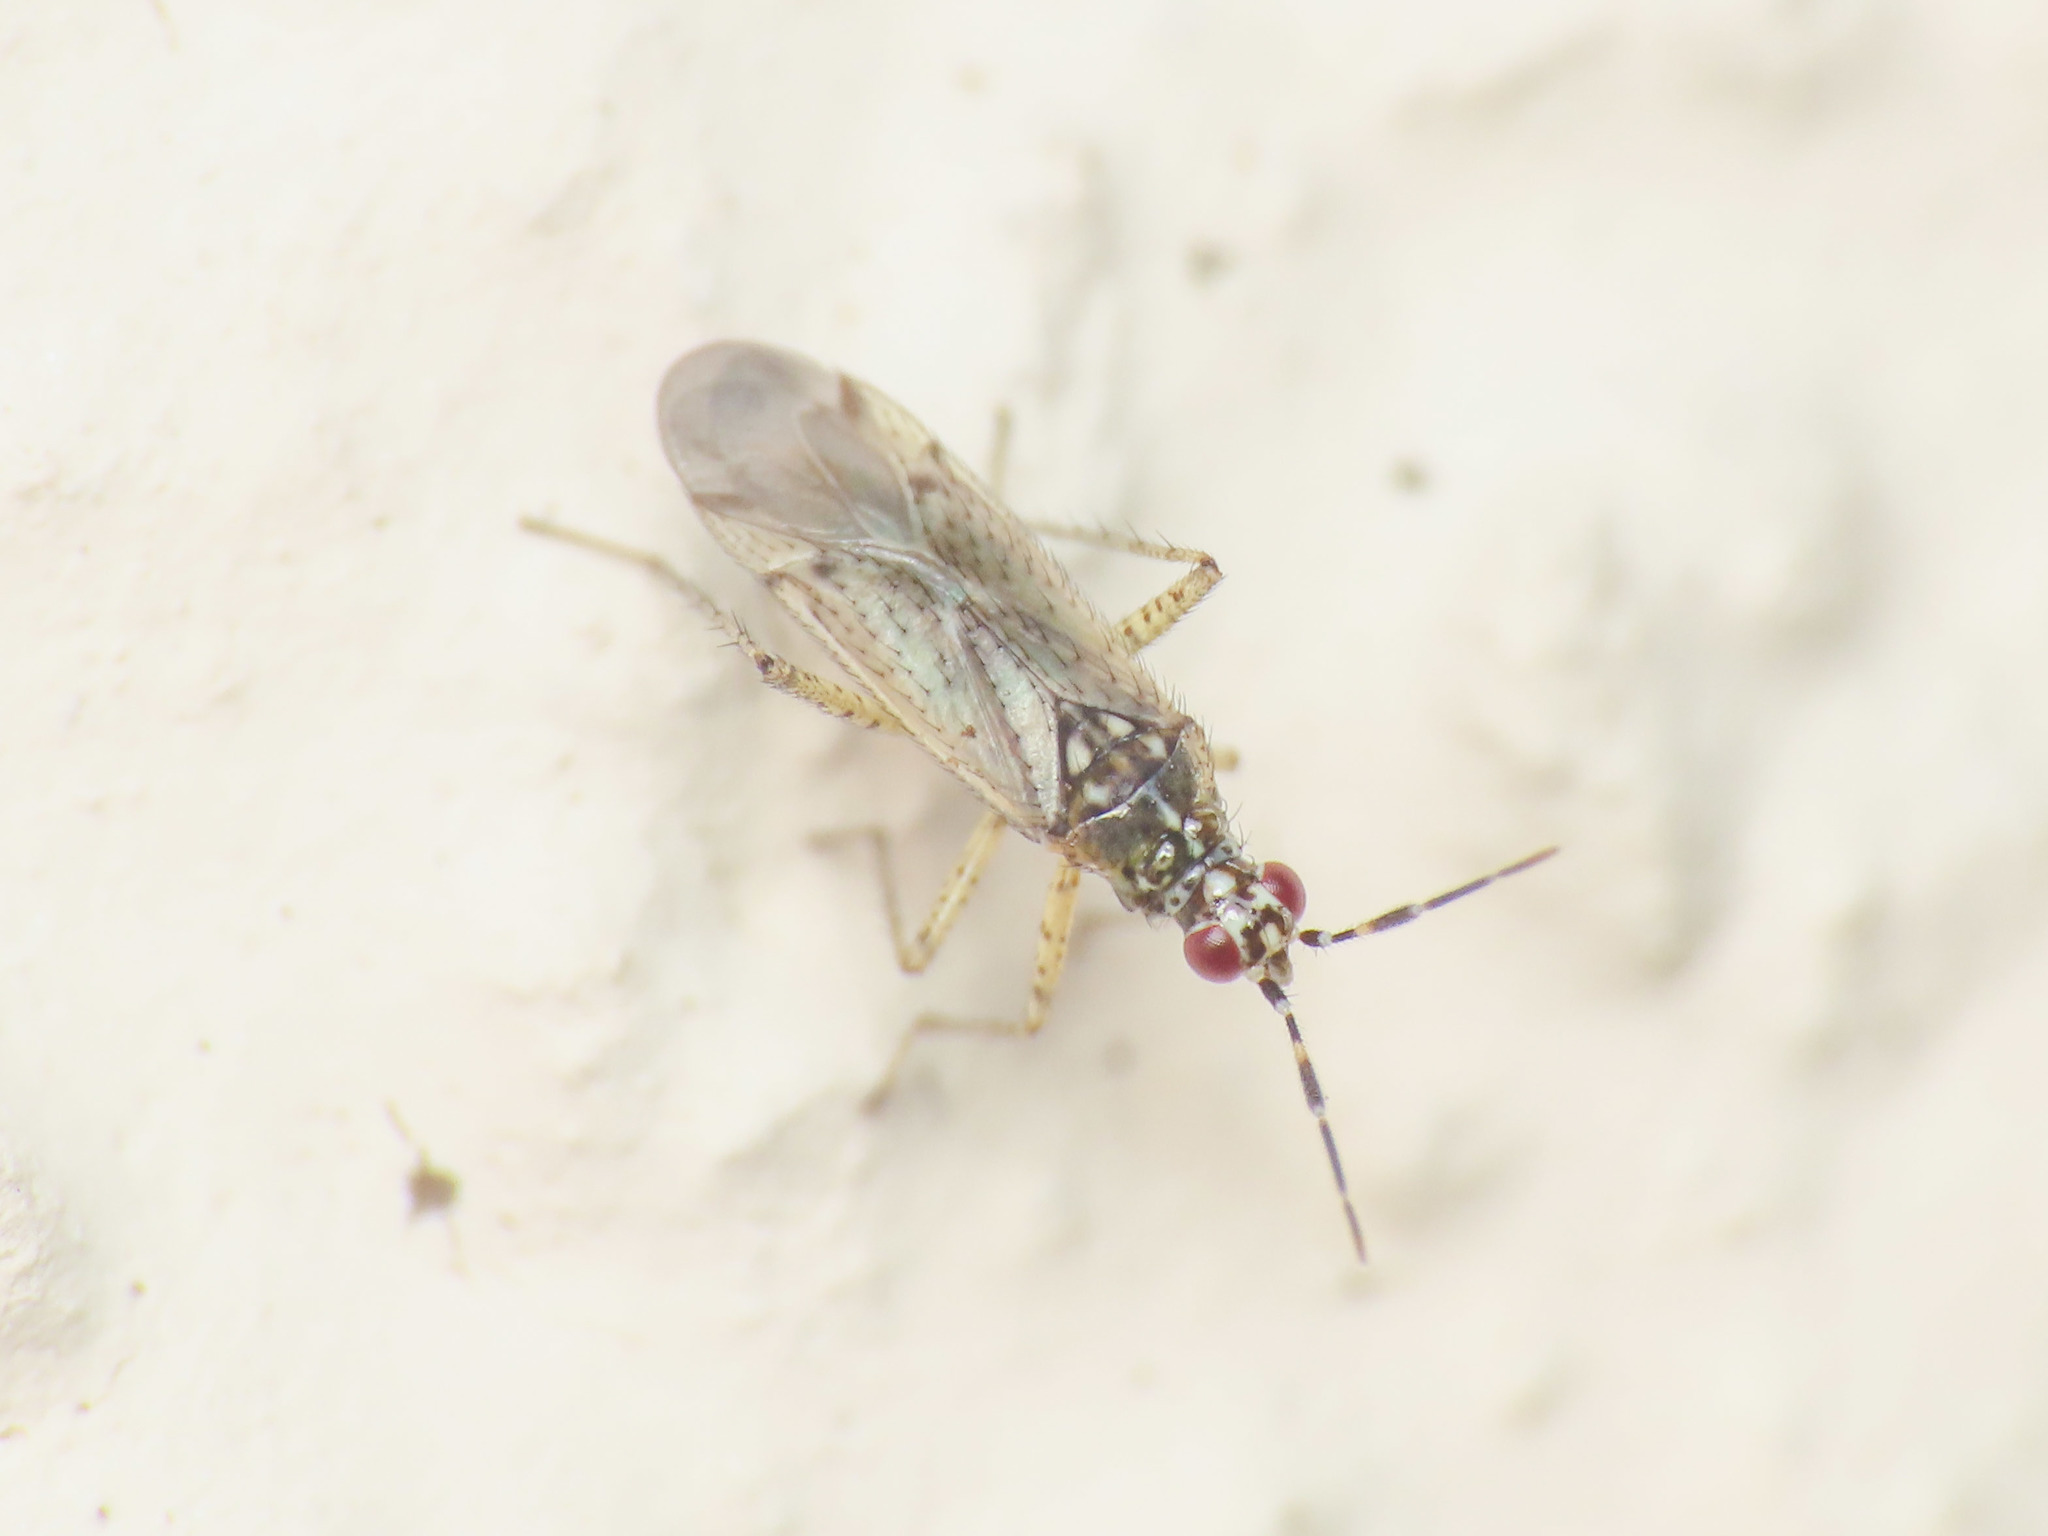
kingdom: Animalia
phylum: Arthropoda
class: Insecta
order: Hemiptera
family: Miridae
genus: Dicyphus
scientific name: Dicyphus albonasutus
